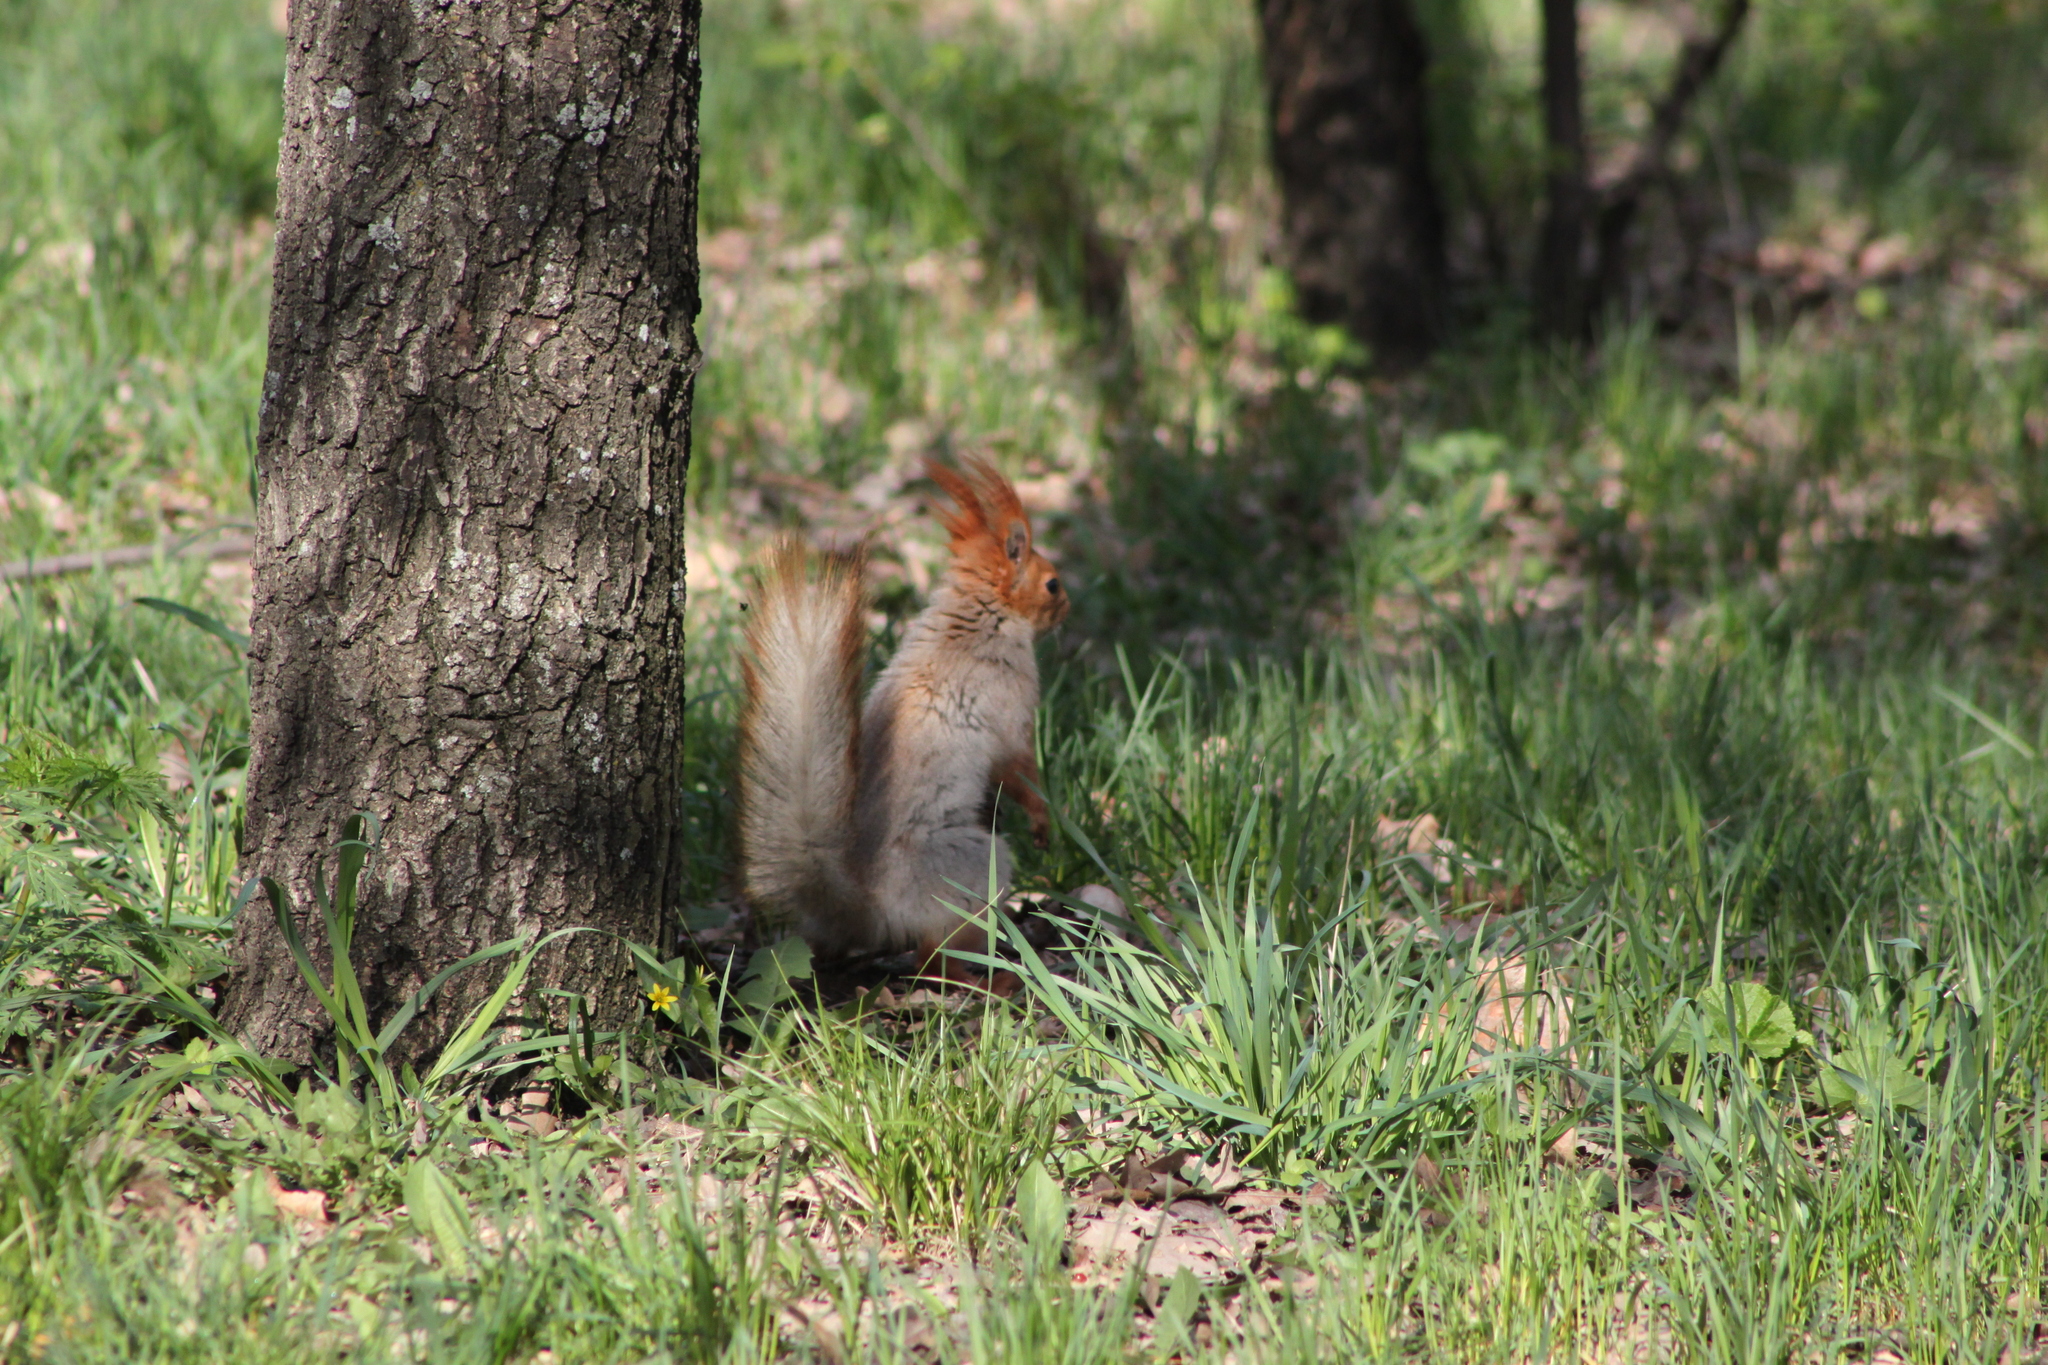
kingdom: Animalia
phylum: Chordata
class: Mammalia
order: Rodentia
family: Sciuridae
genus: Sciurus
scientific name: Sciurus vulgaris
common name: Eurasian red squirrel
